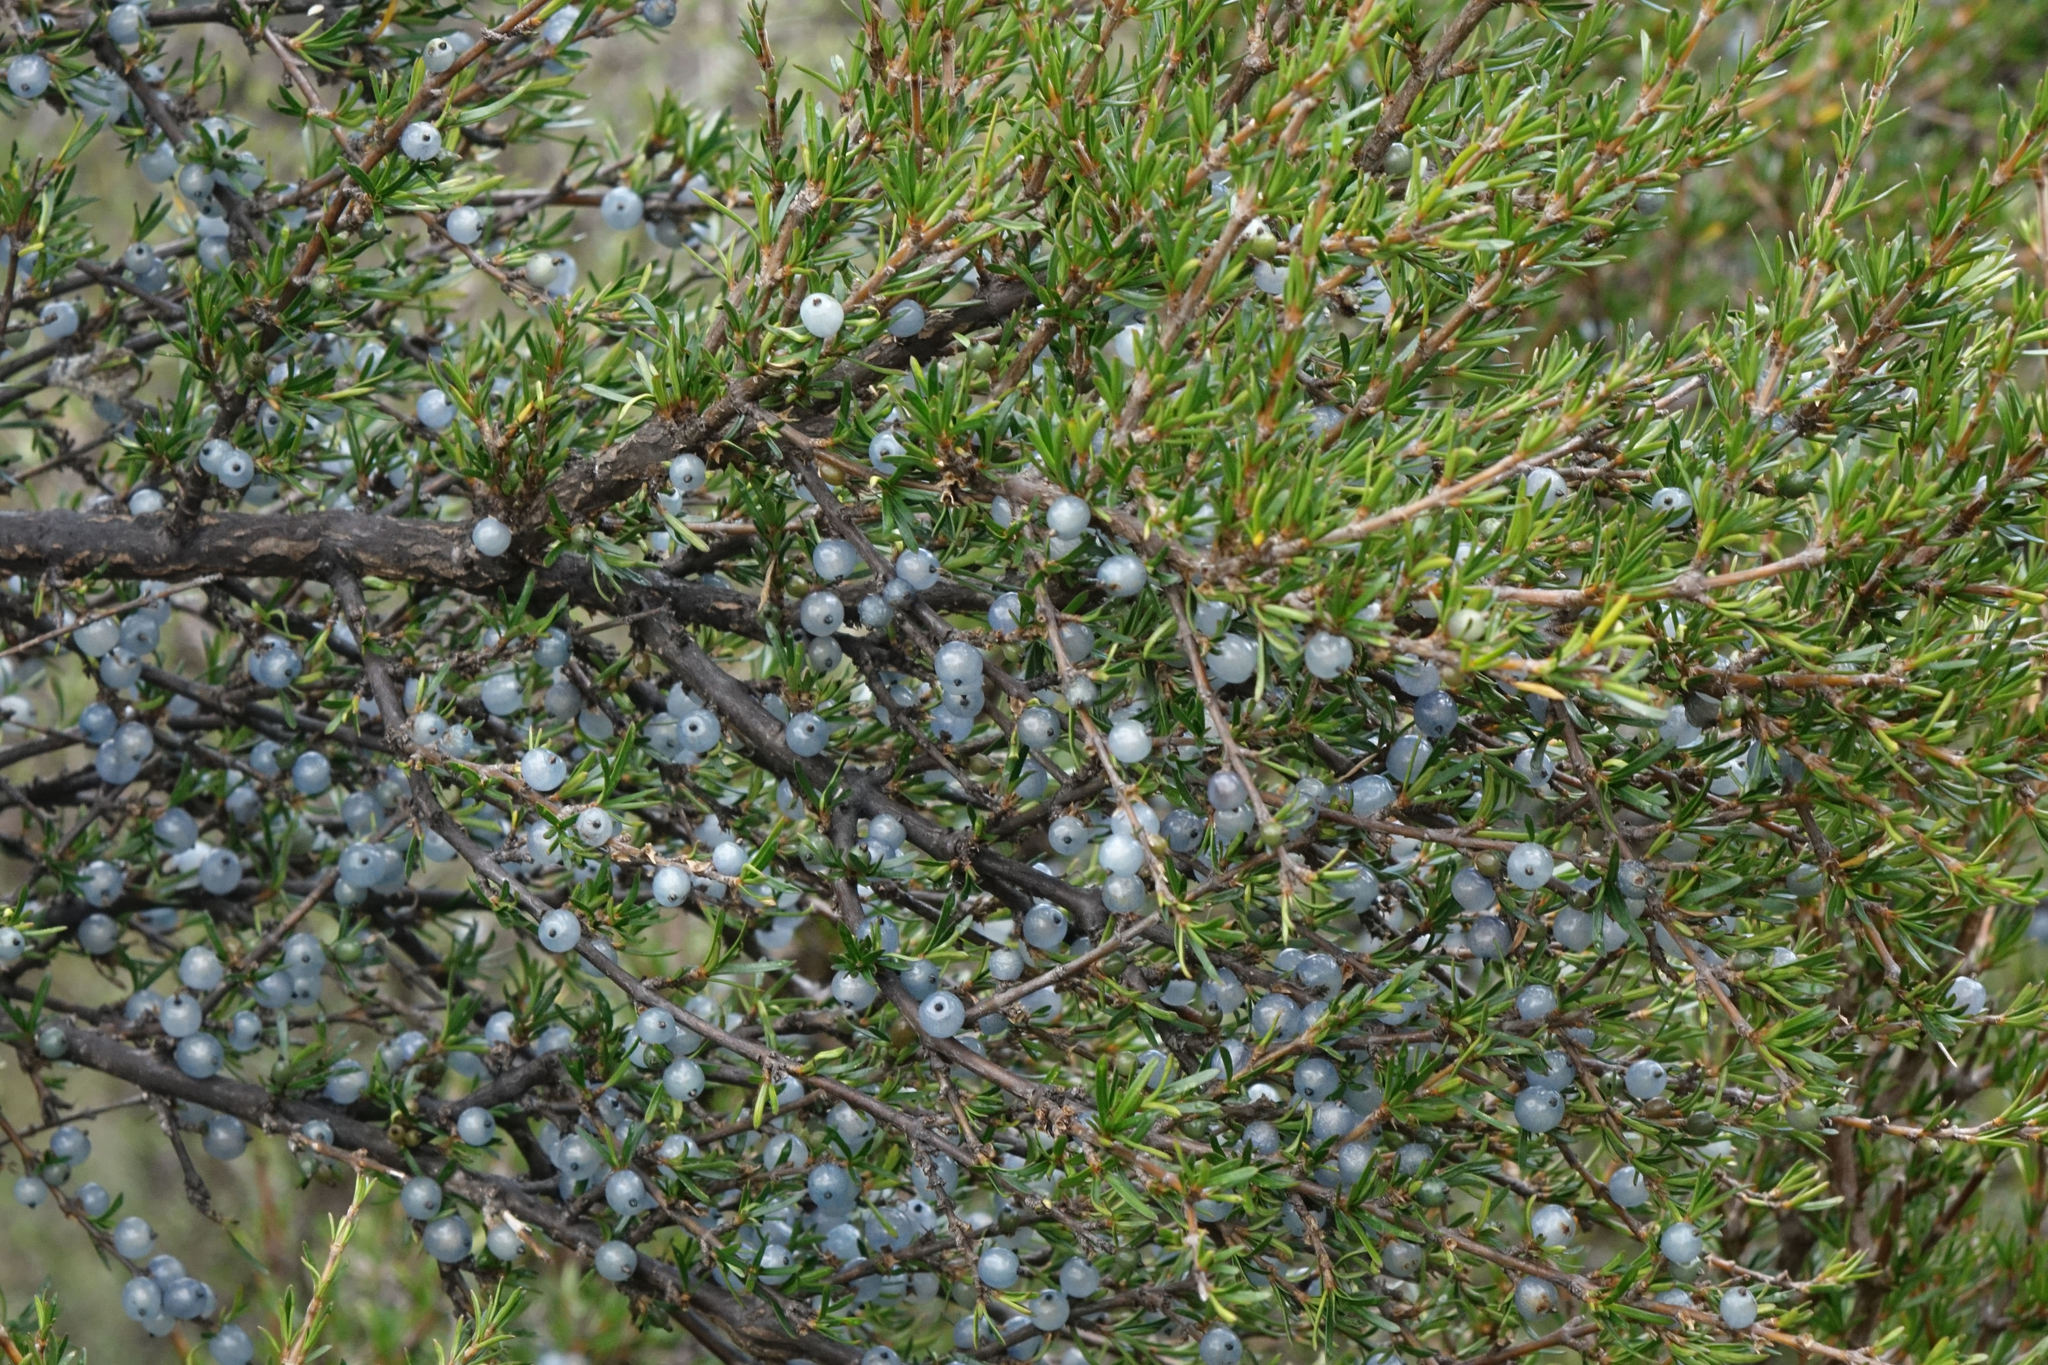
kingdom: Plantae
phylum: Tracheophyta
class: Magnoliopsida
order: Gentianales
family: Rubiaceae
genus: Coprosma
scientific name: Coprosma rugosa
